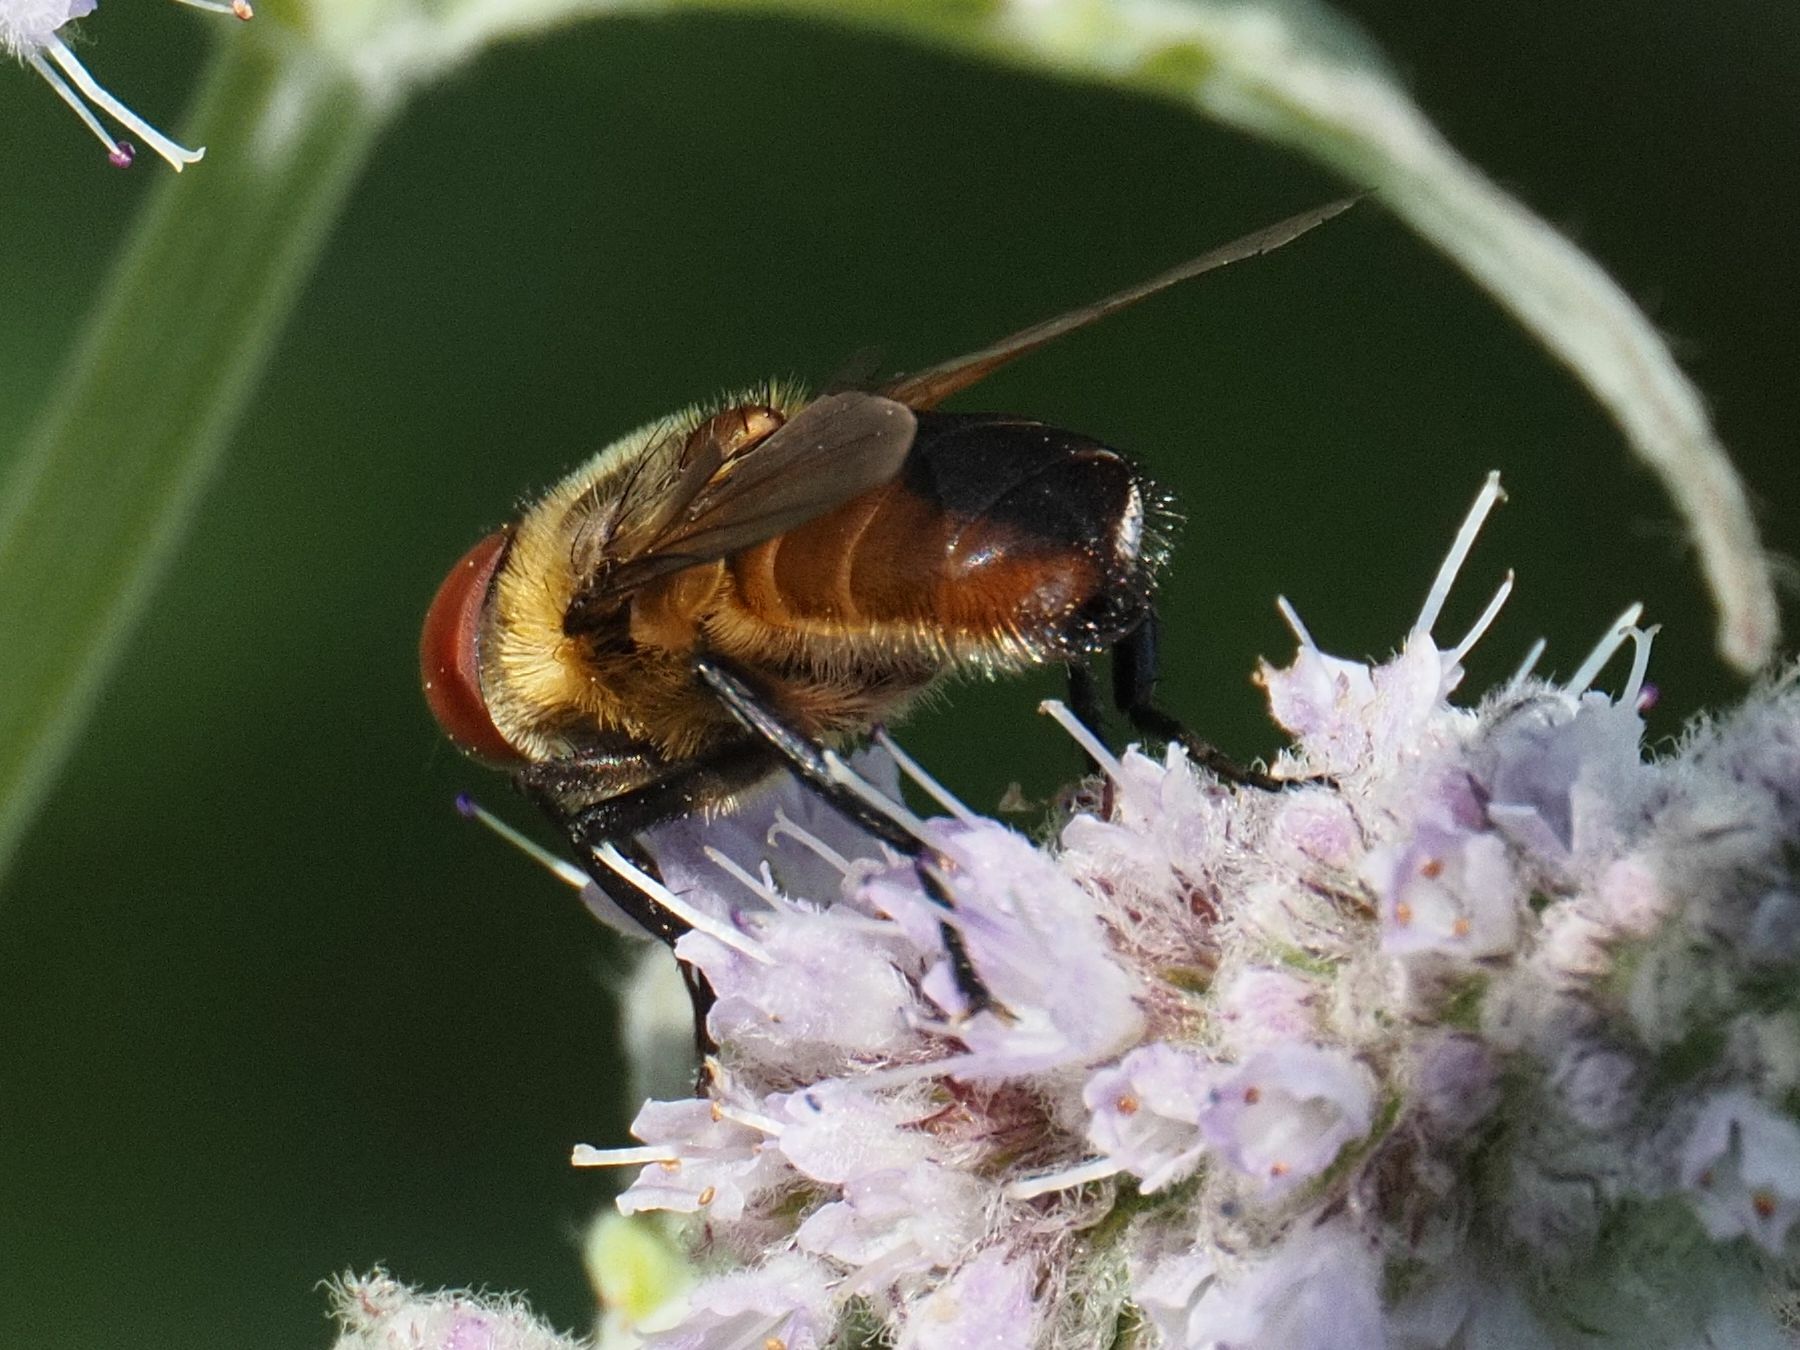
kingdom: Animalia
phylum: Arthropoda
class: Insecta
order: Diptera
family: Tachinidae
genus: Phasia
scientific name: Phasia hemiptera
